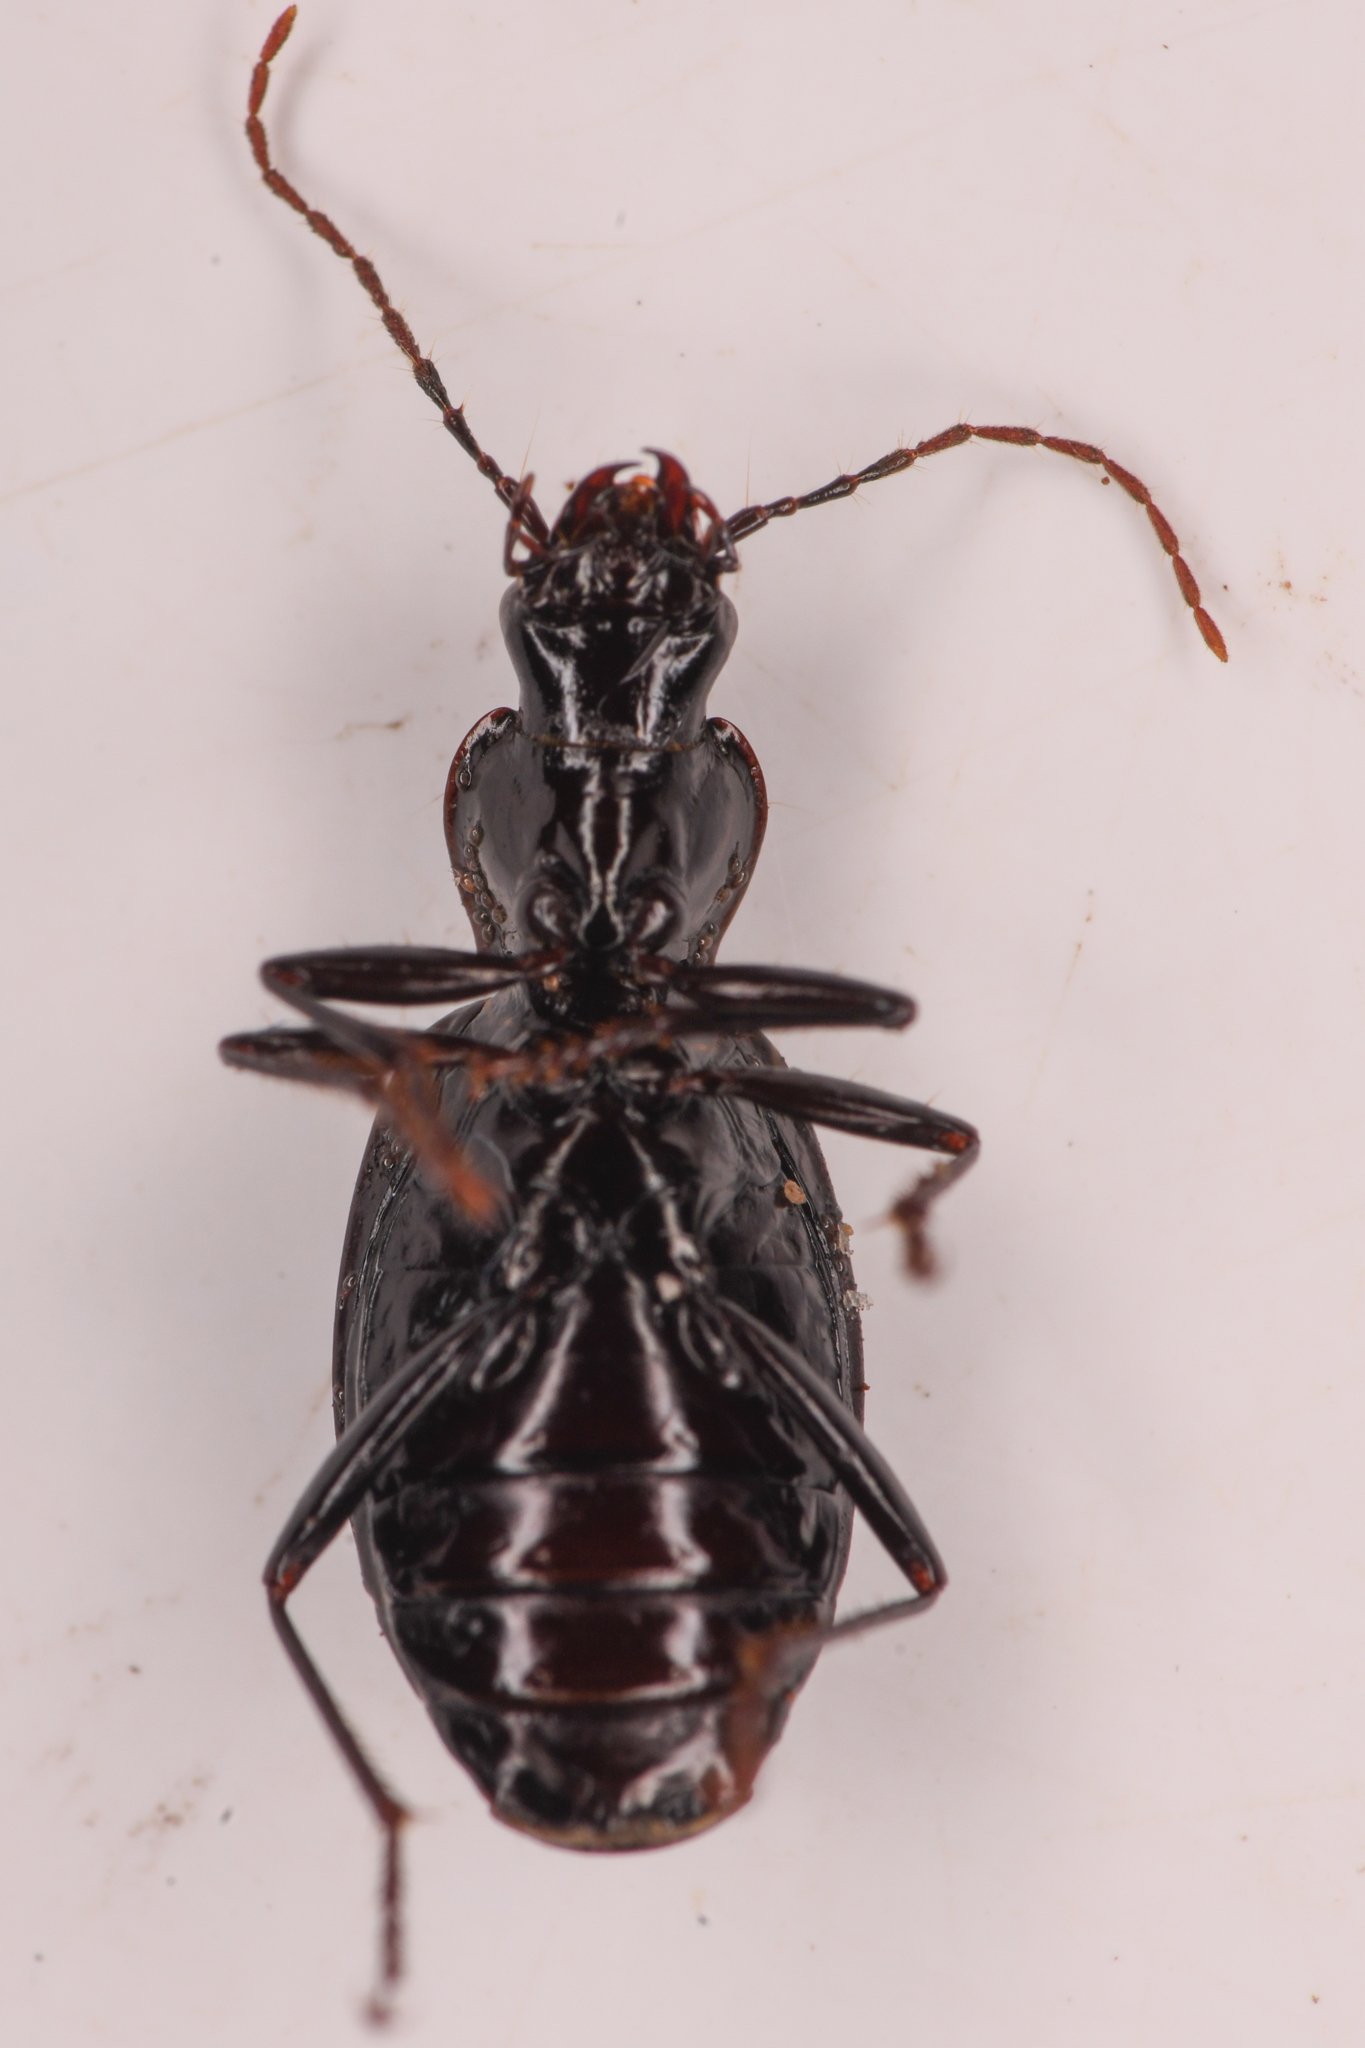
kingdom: Animalia
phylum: Arthropoda
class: Insecta
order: Coleoptera
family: Carabidae
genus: Platynus
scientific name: Platynus ovipennis
